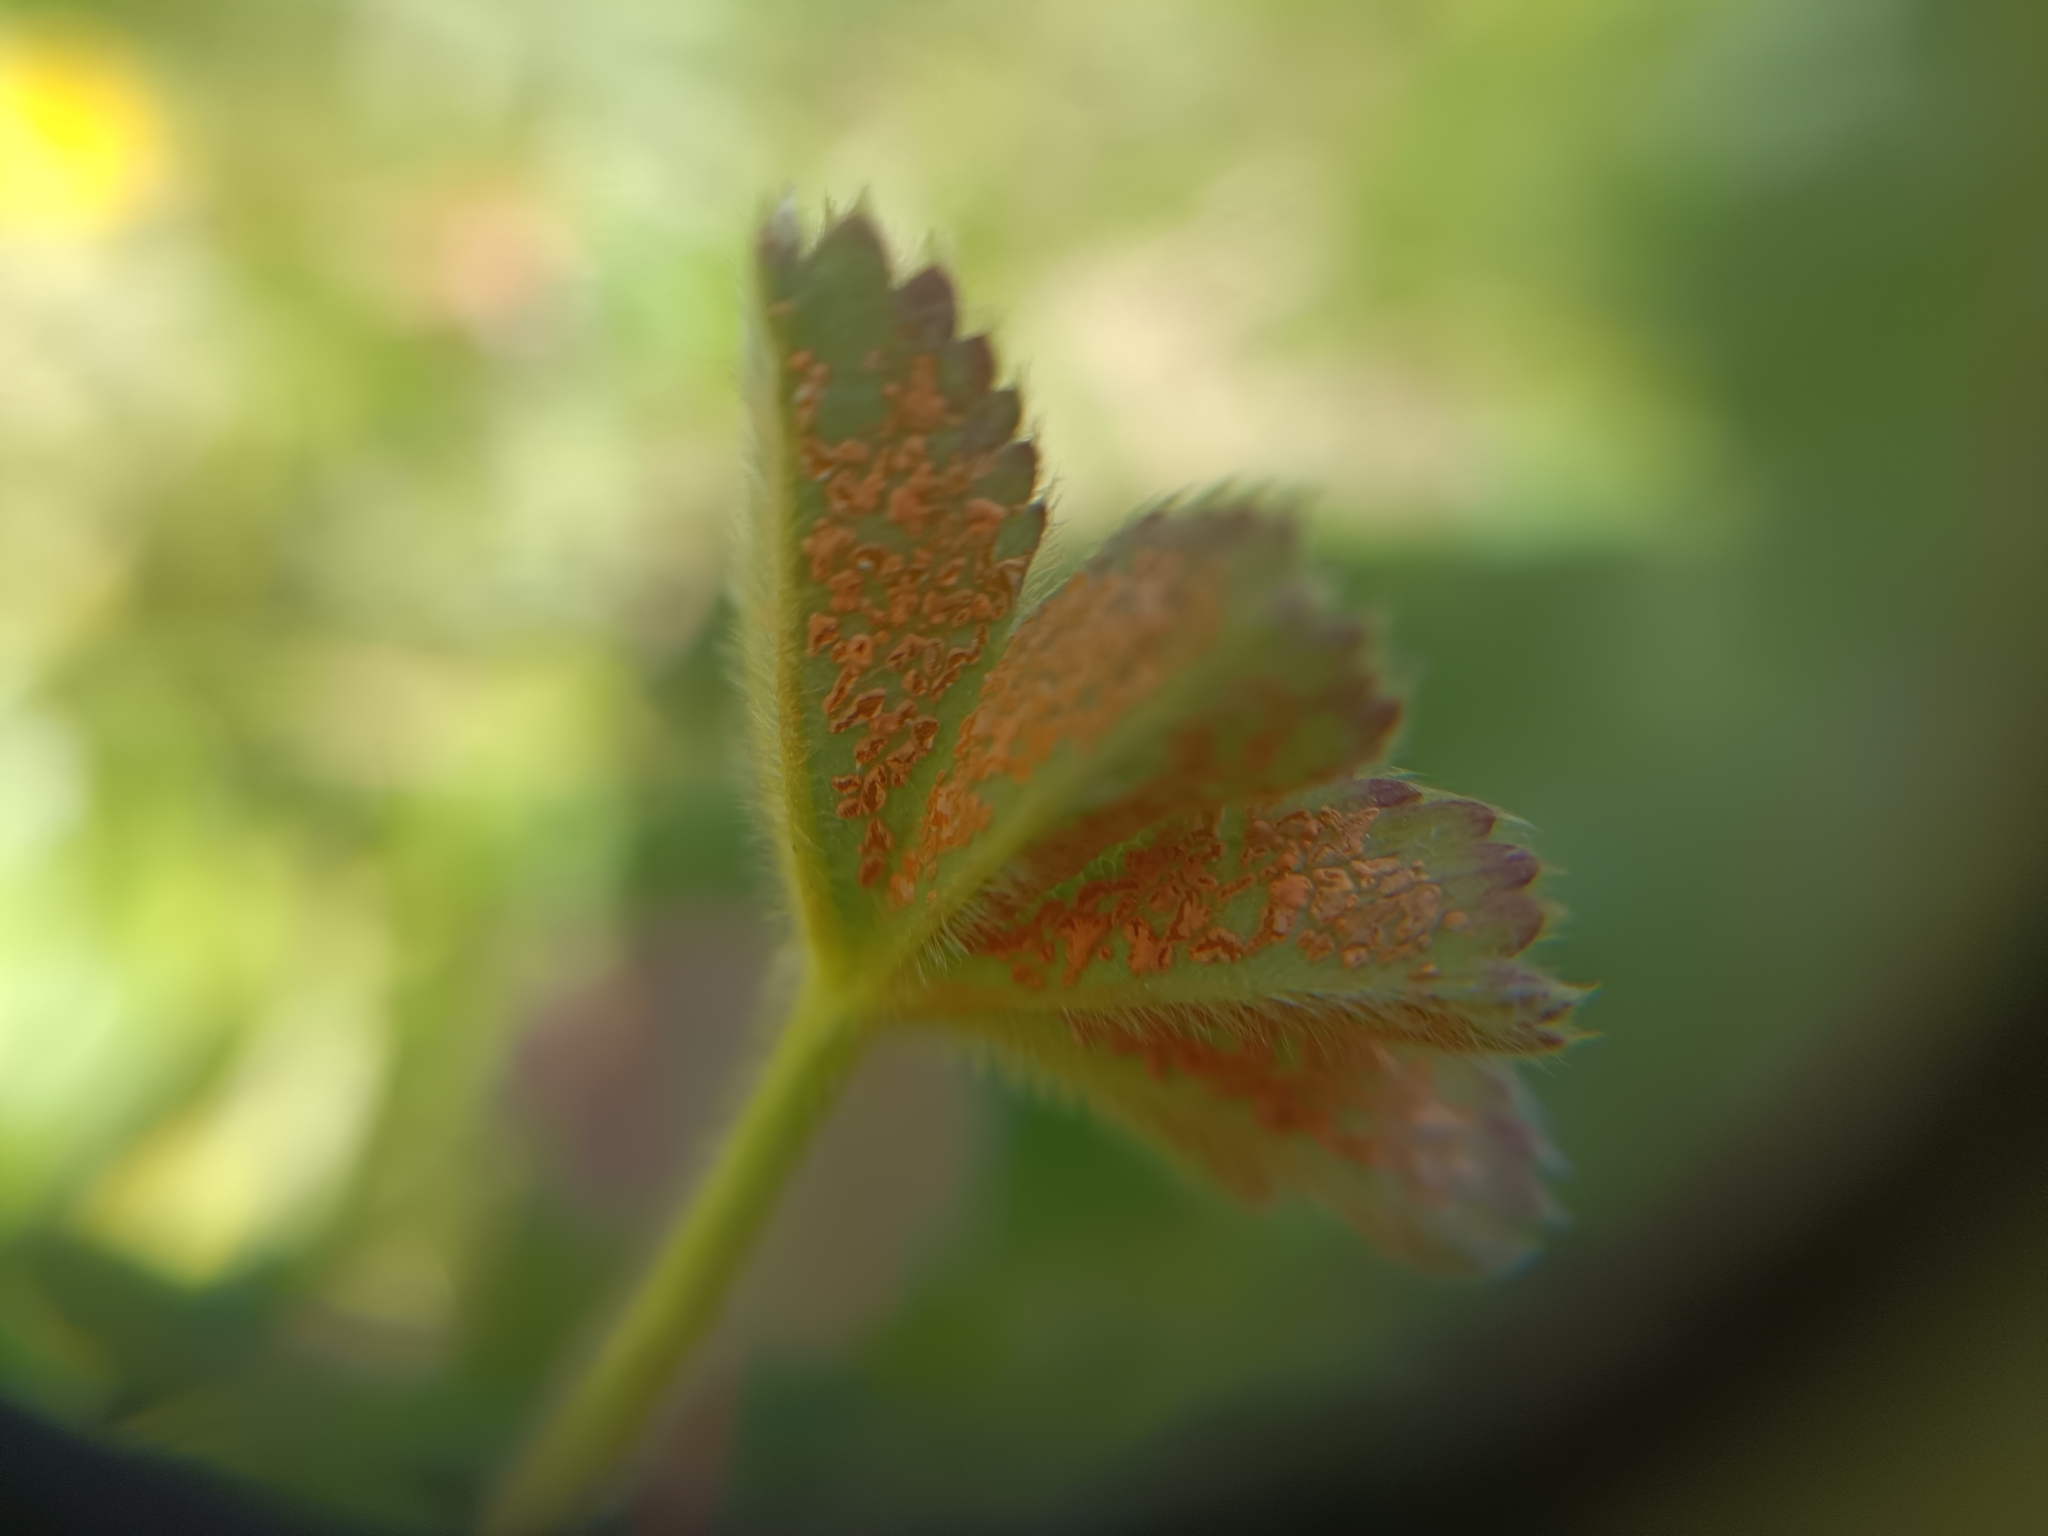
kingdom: Fungi
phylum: Basidiomycota
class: Pucciniomycetes
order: Pucciniales
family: Phragmidiaceae
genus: Trachyspora
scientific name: Trachyspora alchemillae
